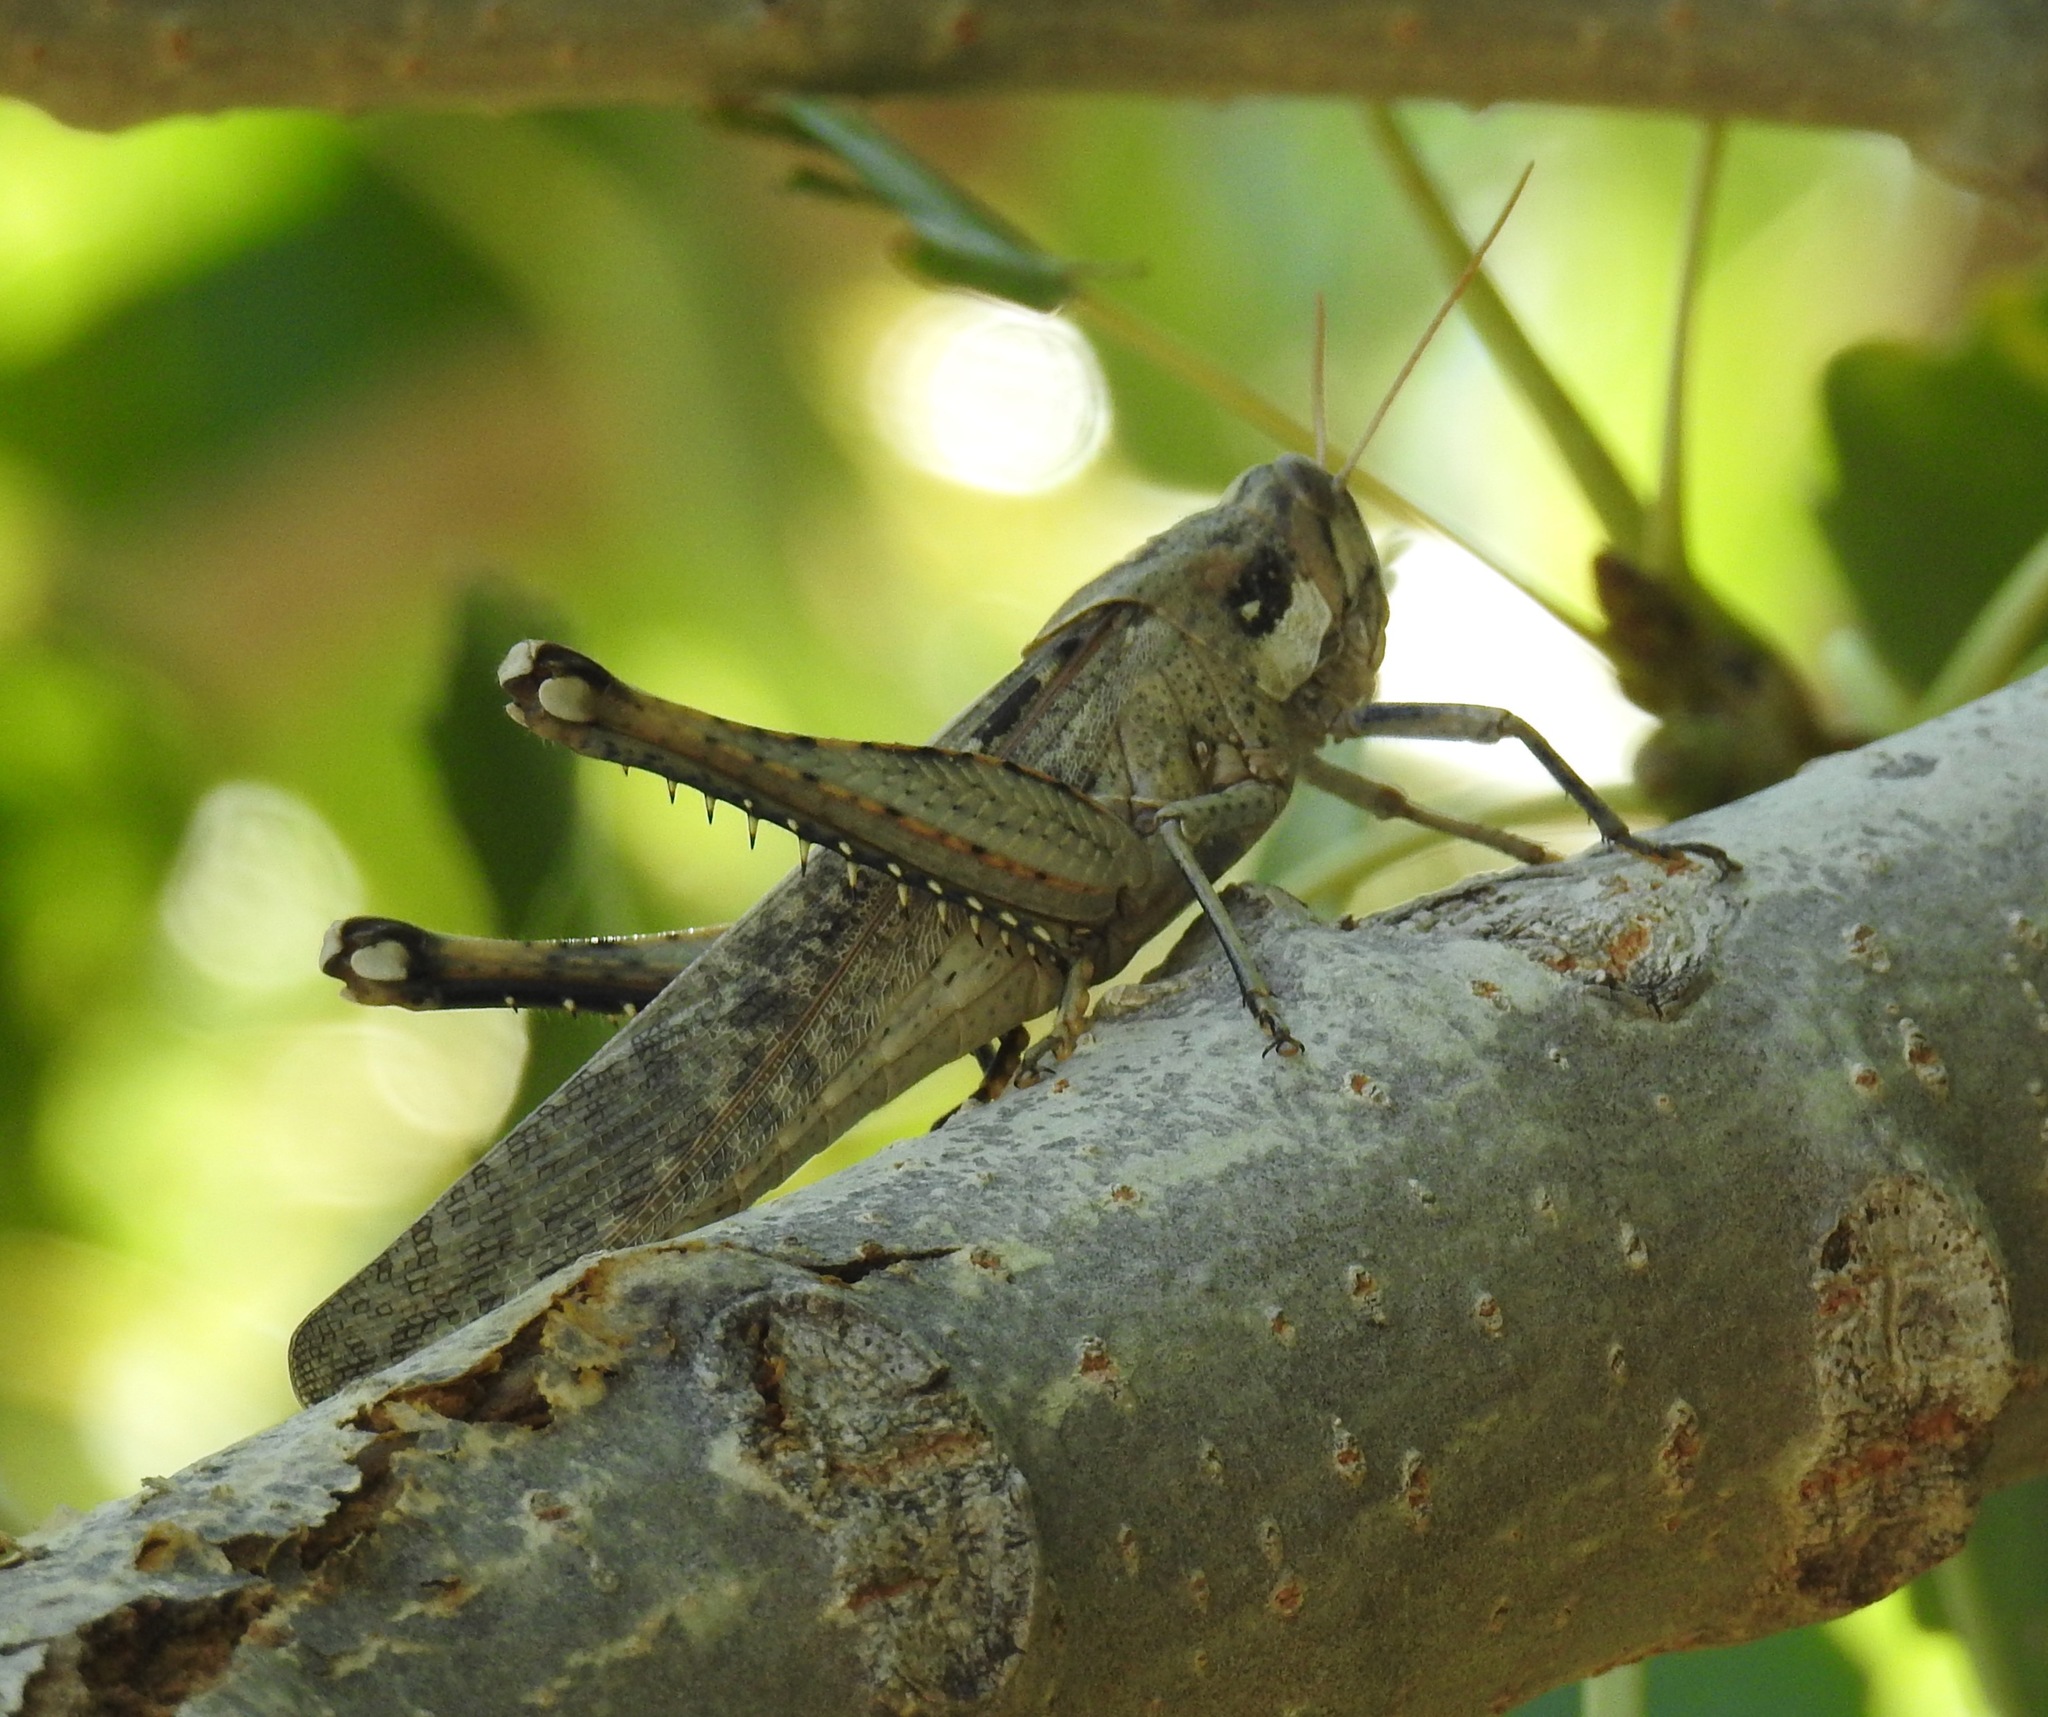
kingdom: Animalia
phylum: Arthropoda
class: Insecta
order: Orthoptera
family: Acrididae
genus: Schistocerca
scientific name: Schistocerca nitens
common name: Vagrant grasshopper
